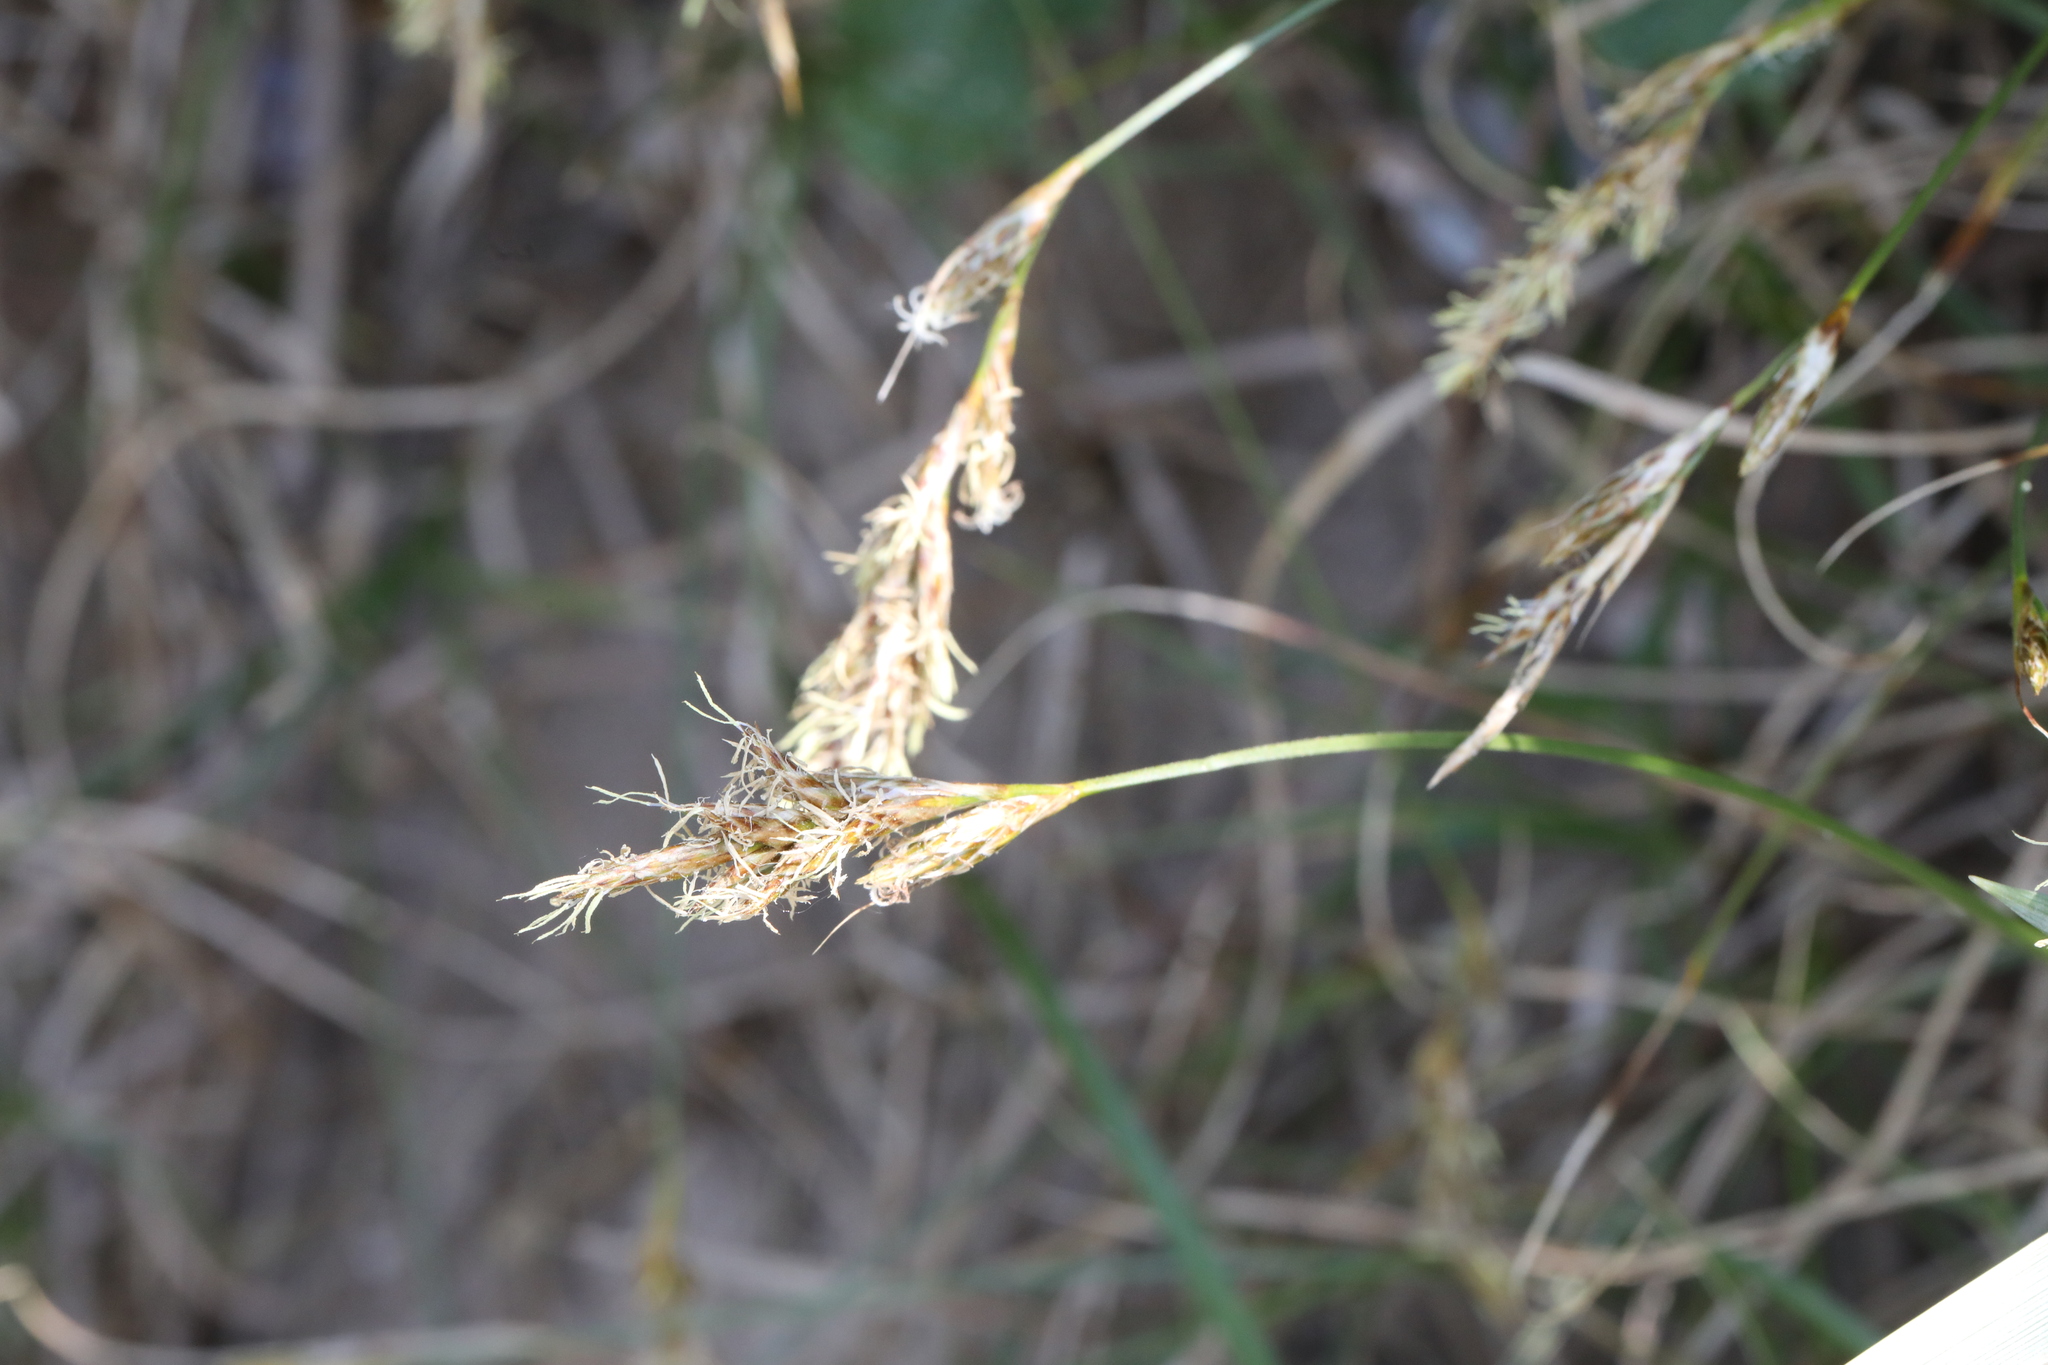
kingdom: Plantae
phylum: Tracheophyta
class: Liliopsida
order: Poales
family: Cyperaceae
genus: Carex
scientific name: Carex arenaria
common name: Sand sedge
